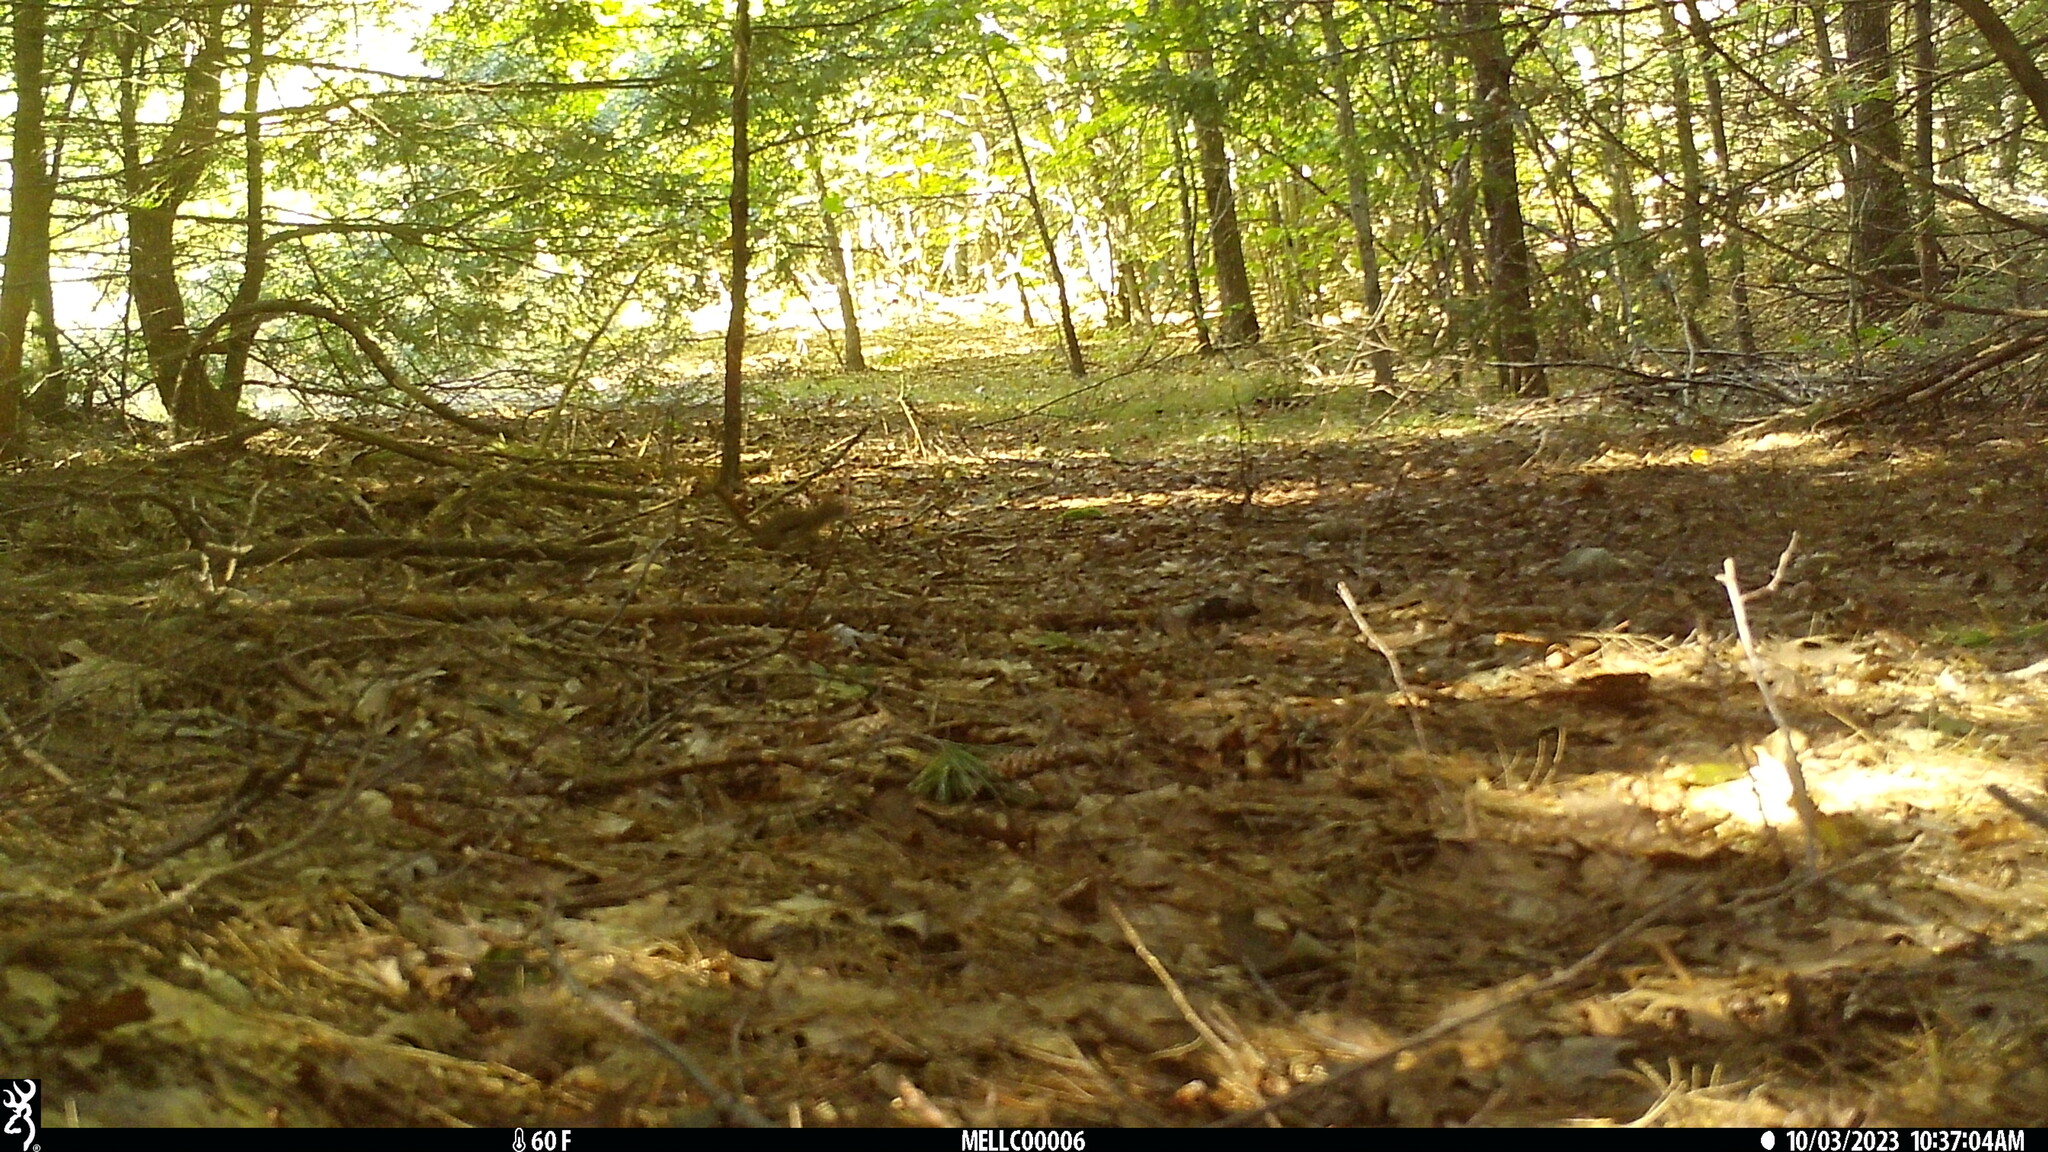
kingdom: Animalia
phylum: Chordata
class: Mammalia
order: Rodentia
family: Sciuridae
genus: Tamiasciurus
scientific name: Tamiasciurus hudsonicus
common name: Red squirrel
